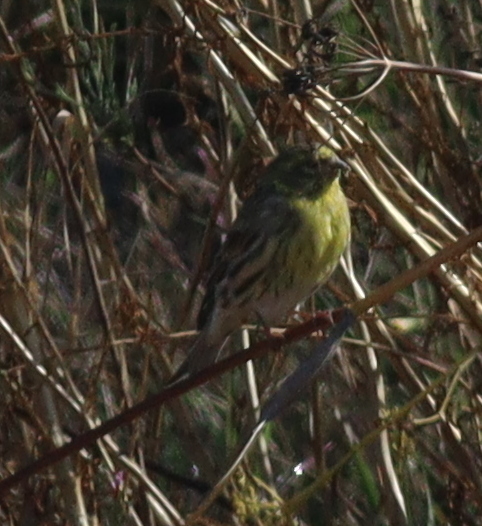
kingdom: Animalia
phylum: Chordata
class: Aves
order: Passeriformes
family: Fringillidae
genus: Serinus
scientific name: Serinus serinus
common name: European serin
